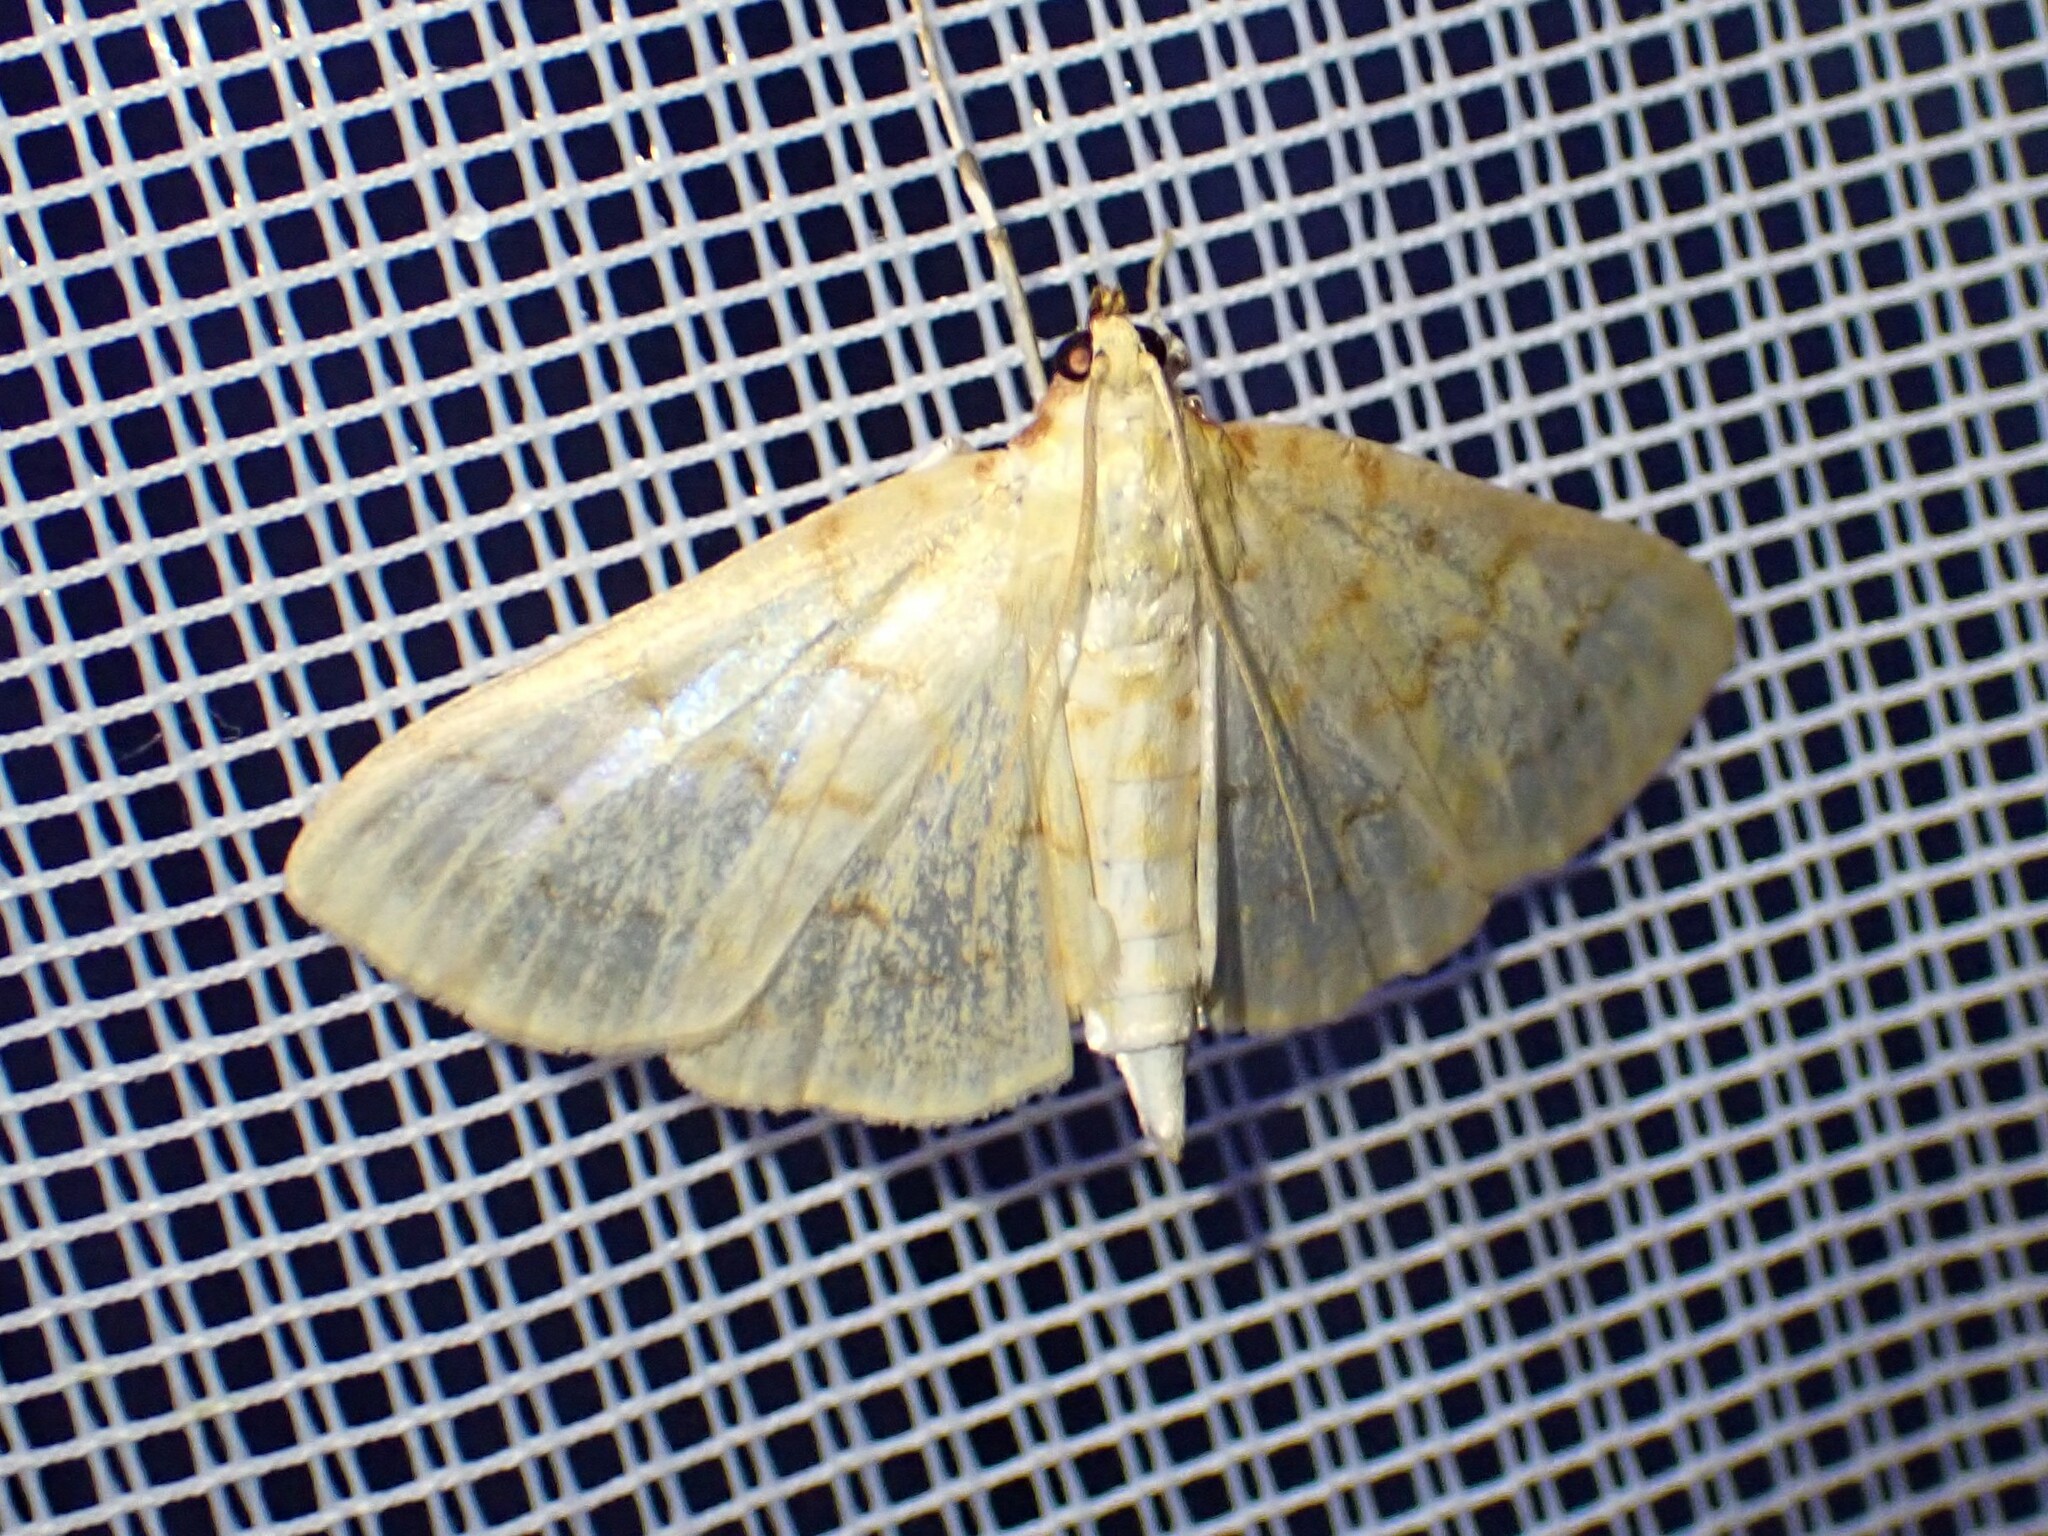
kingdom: Animalia
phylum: Arthropoda
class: Insecta
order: Lepidoptera
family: Crambidae
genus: Polygrammodes
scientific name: Polygrammodes flavidalis
